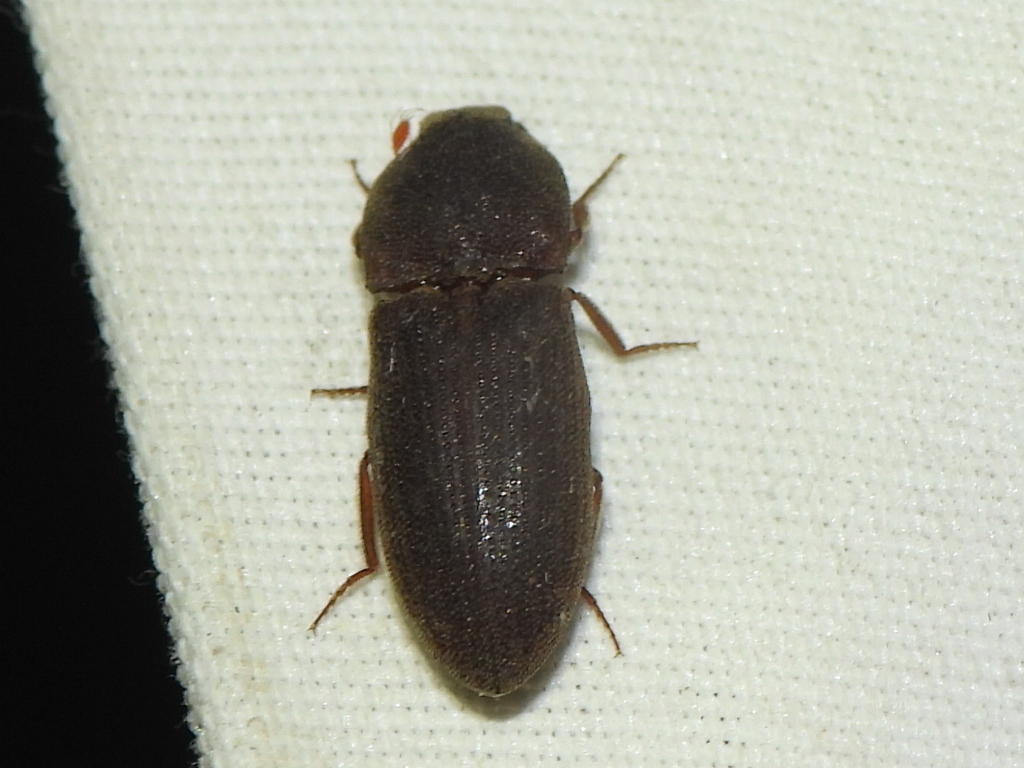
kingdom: Animalia
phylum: Arthropoda
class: Insecta
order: Coleoptera
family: Elateridae
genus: Agrypnus
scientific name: Agrypnus rectangularis
